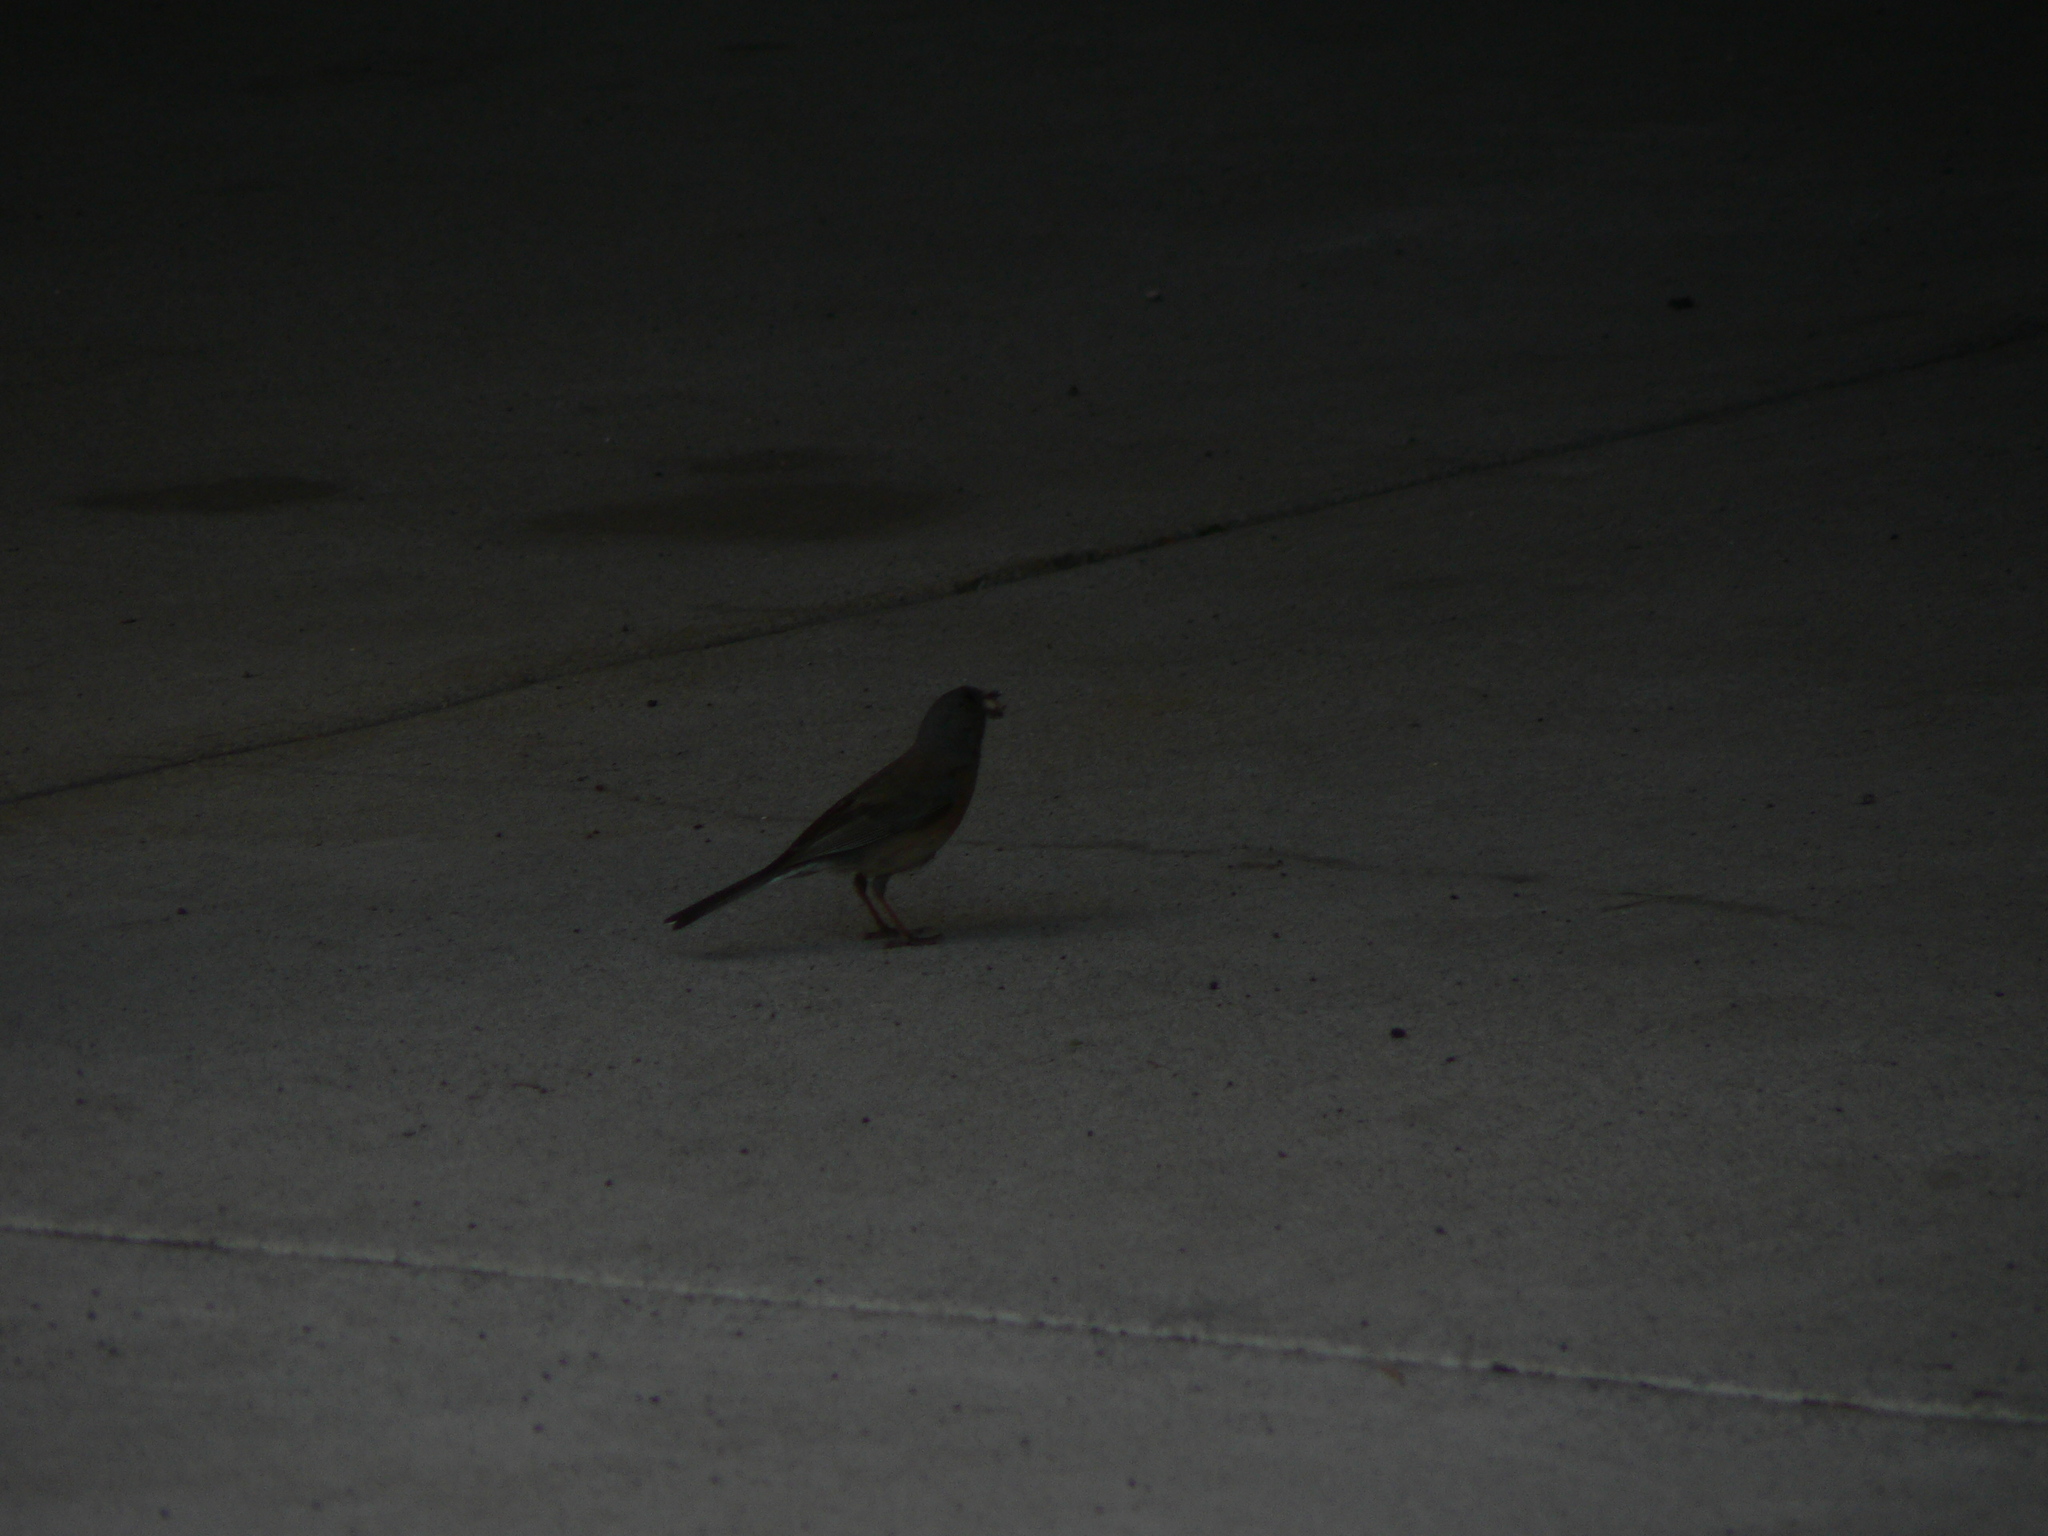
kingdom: Animalia
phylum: Chordata
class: Aves
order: Passeriformes
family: Passerellidae
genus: Junco
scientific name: Junco hyemalis
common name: Dark-eyed junco
